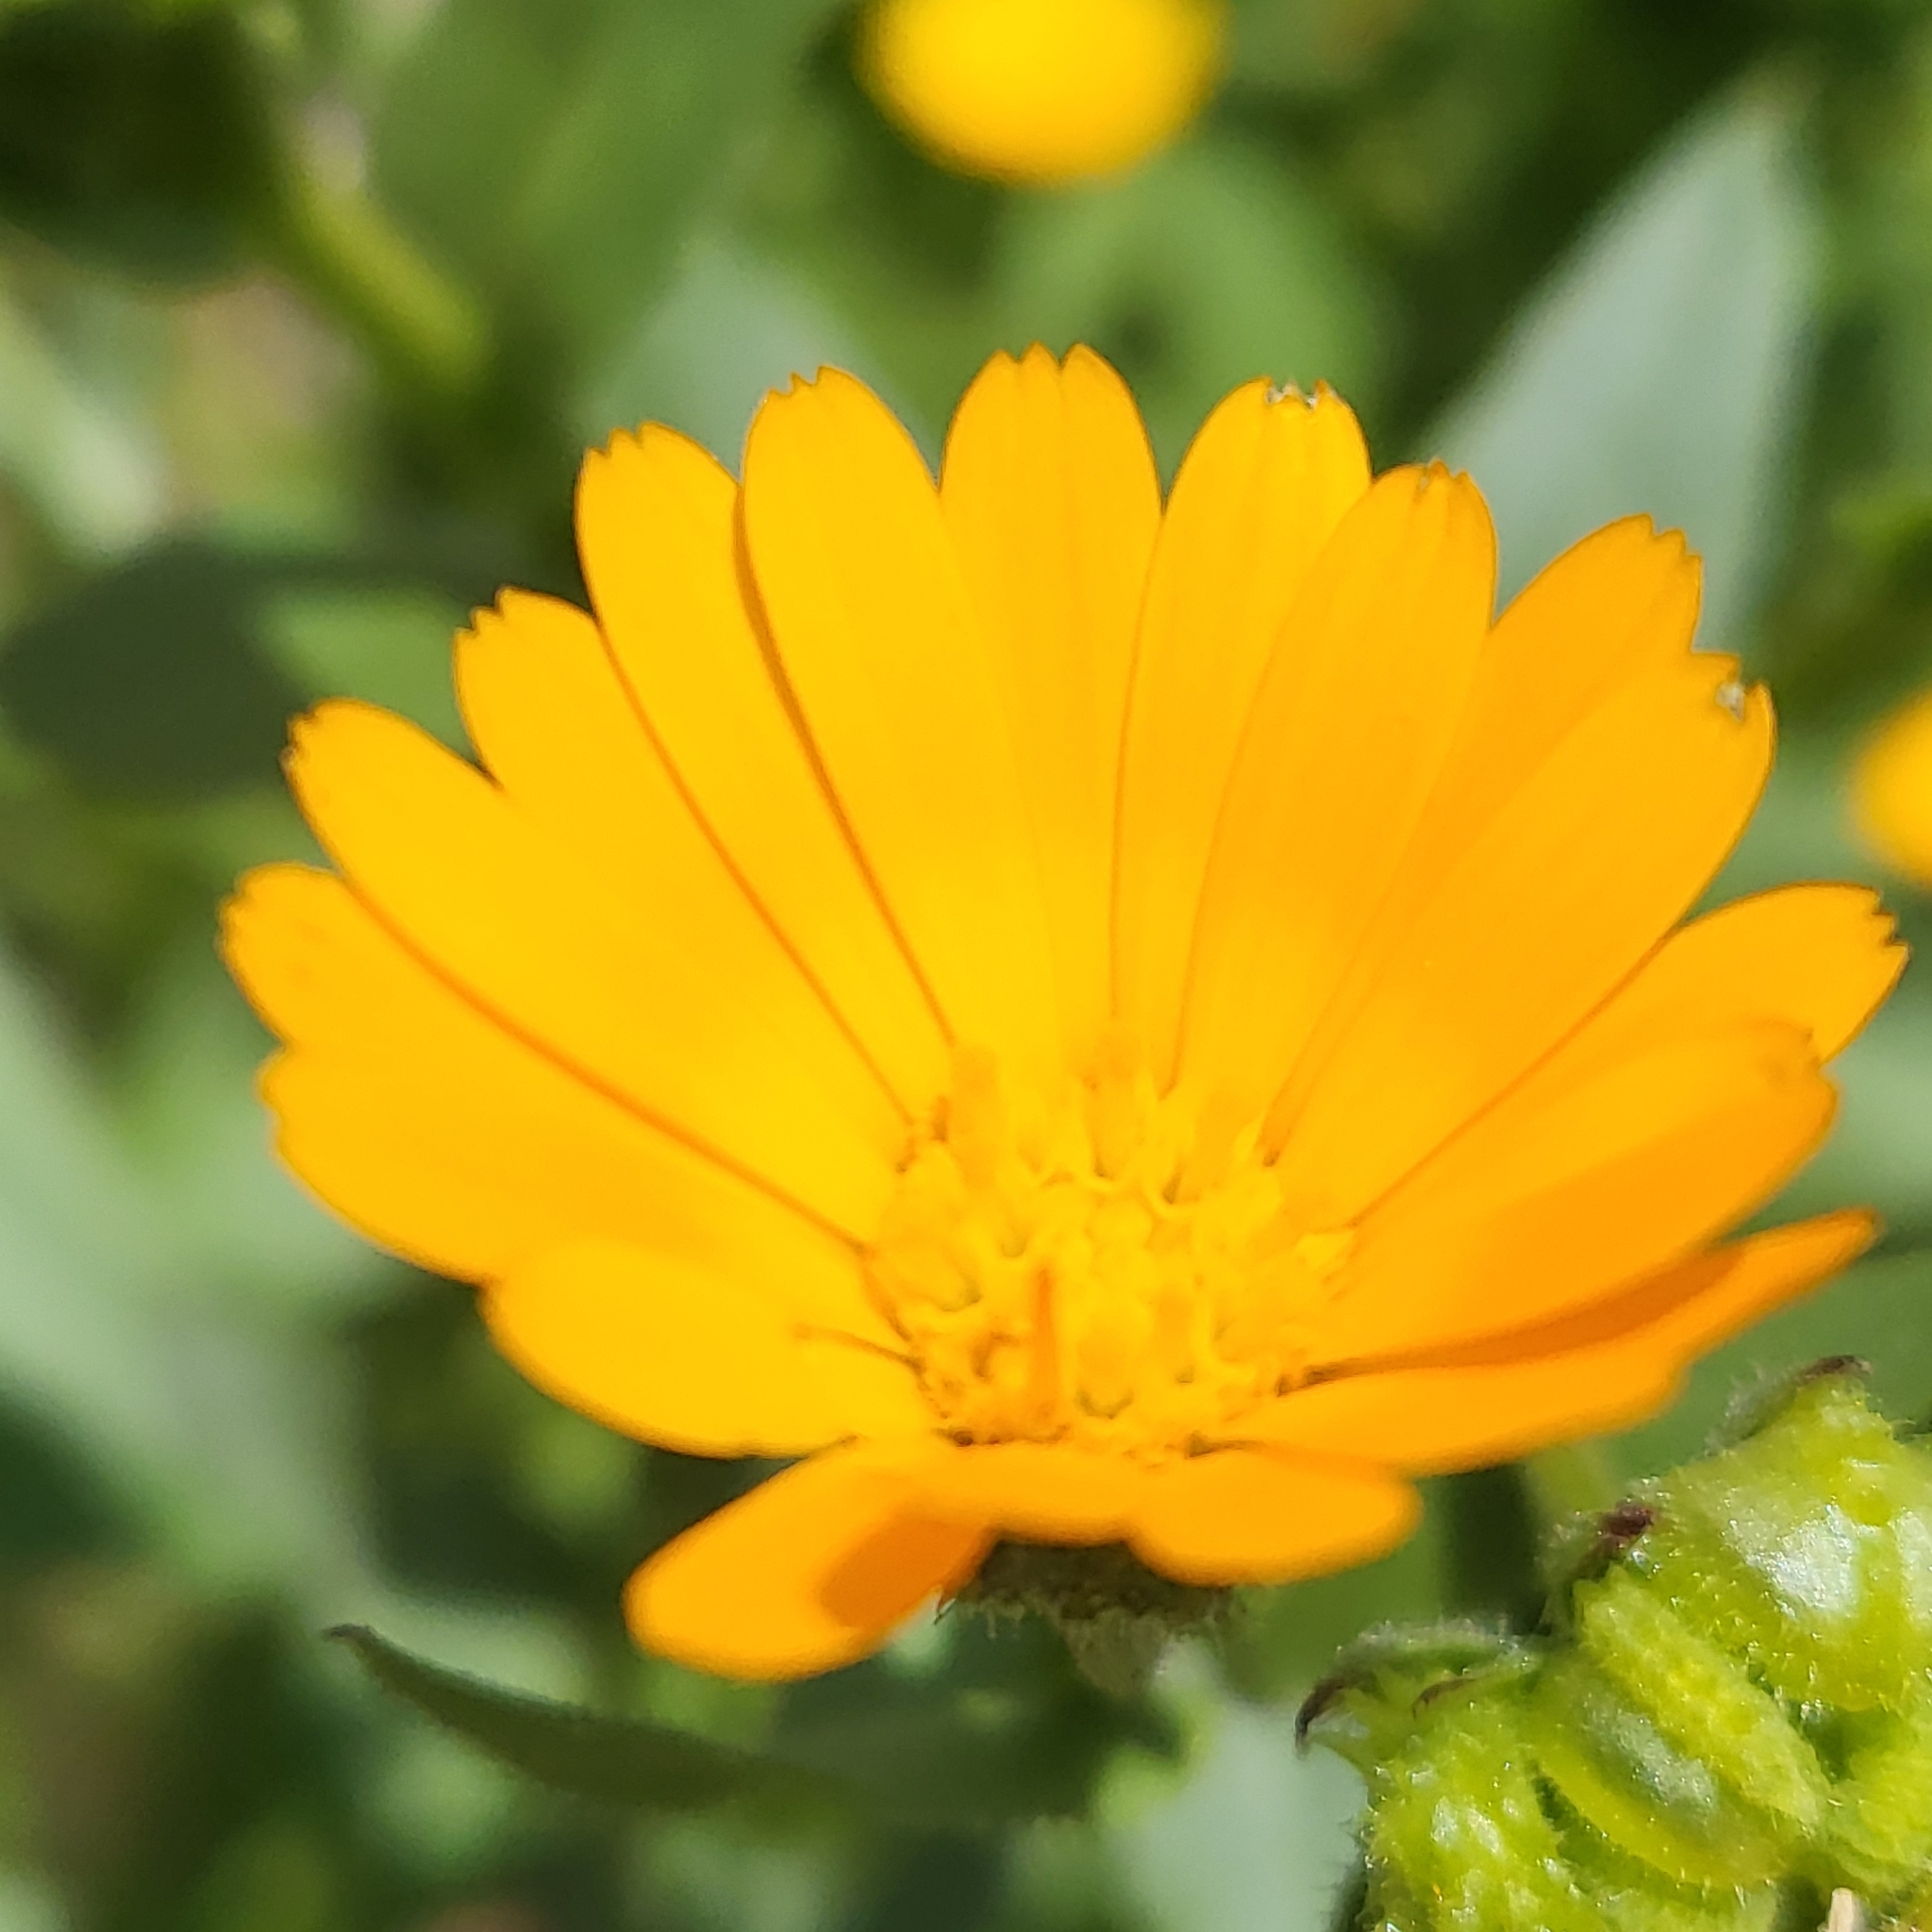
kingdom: Plantae
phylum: Tracheophyta
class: Magnoliopsida
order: Asterales
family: Asteraceae
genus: Calendula
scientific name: Calendula arvensis
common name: Field marigold
